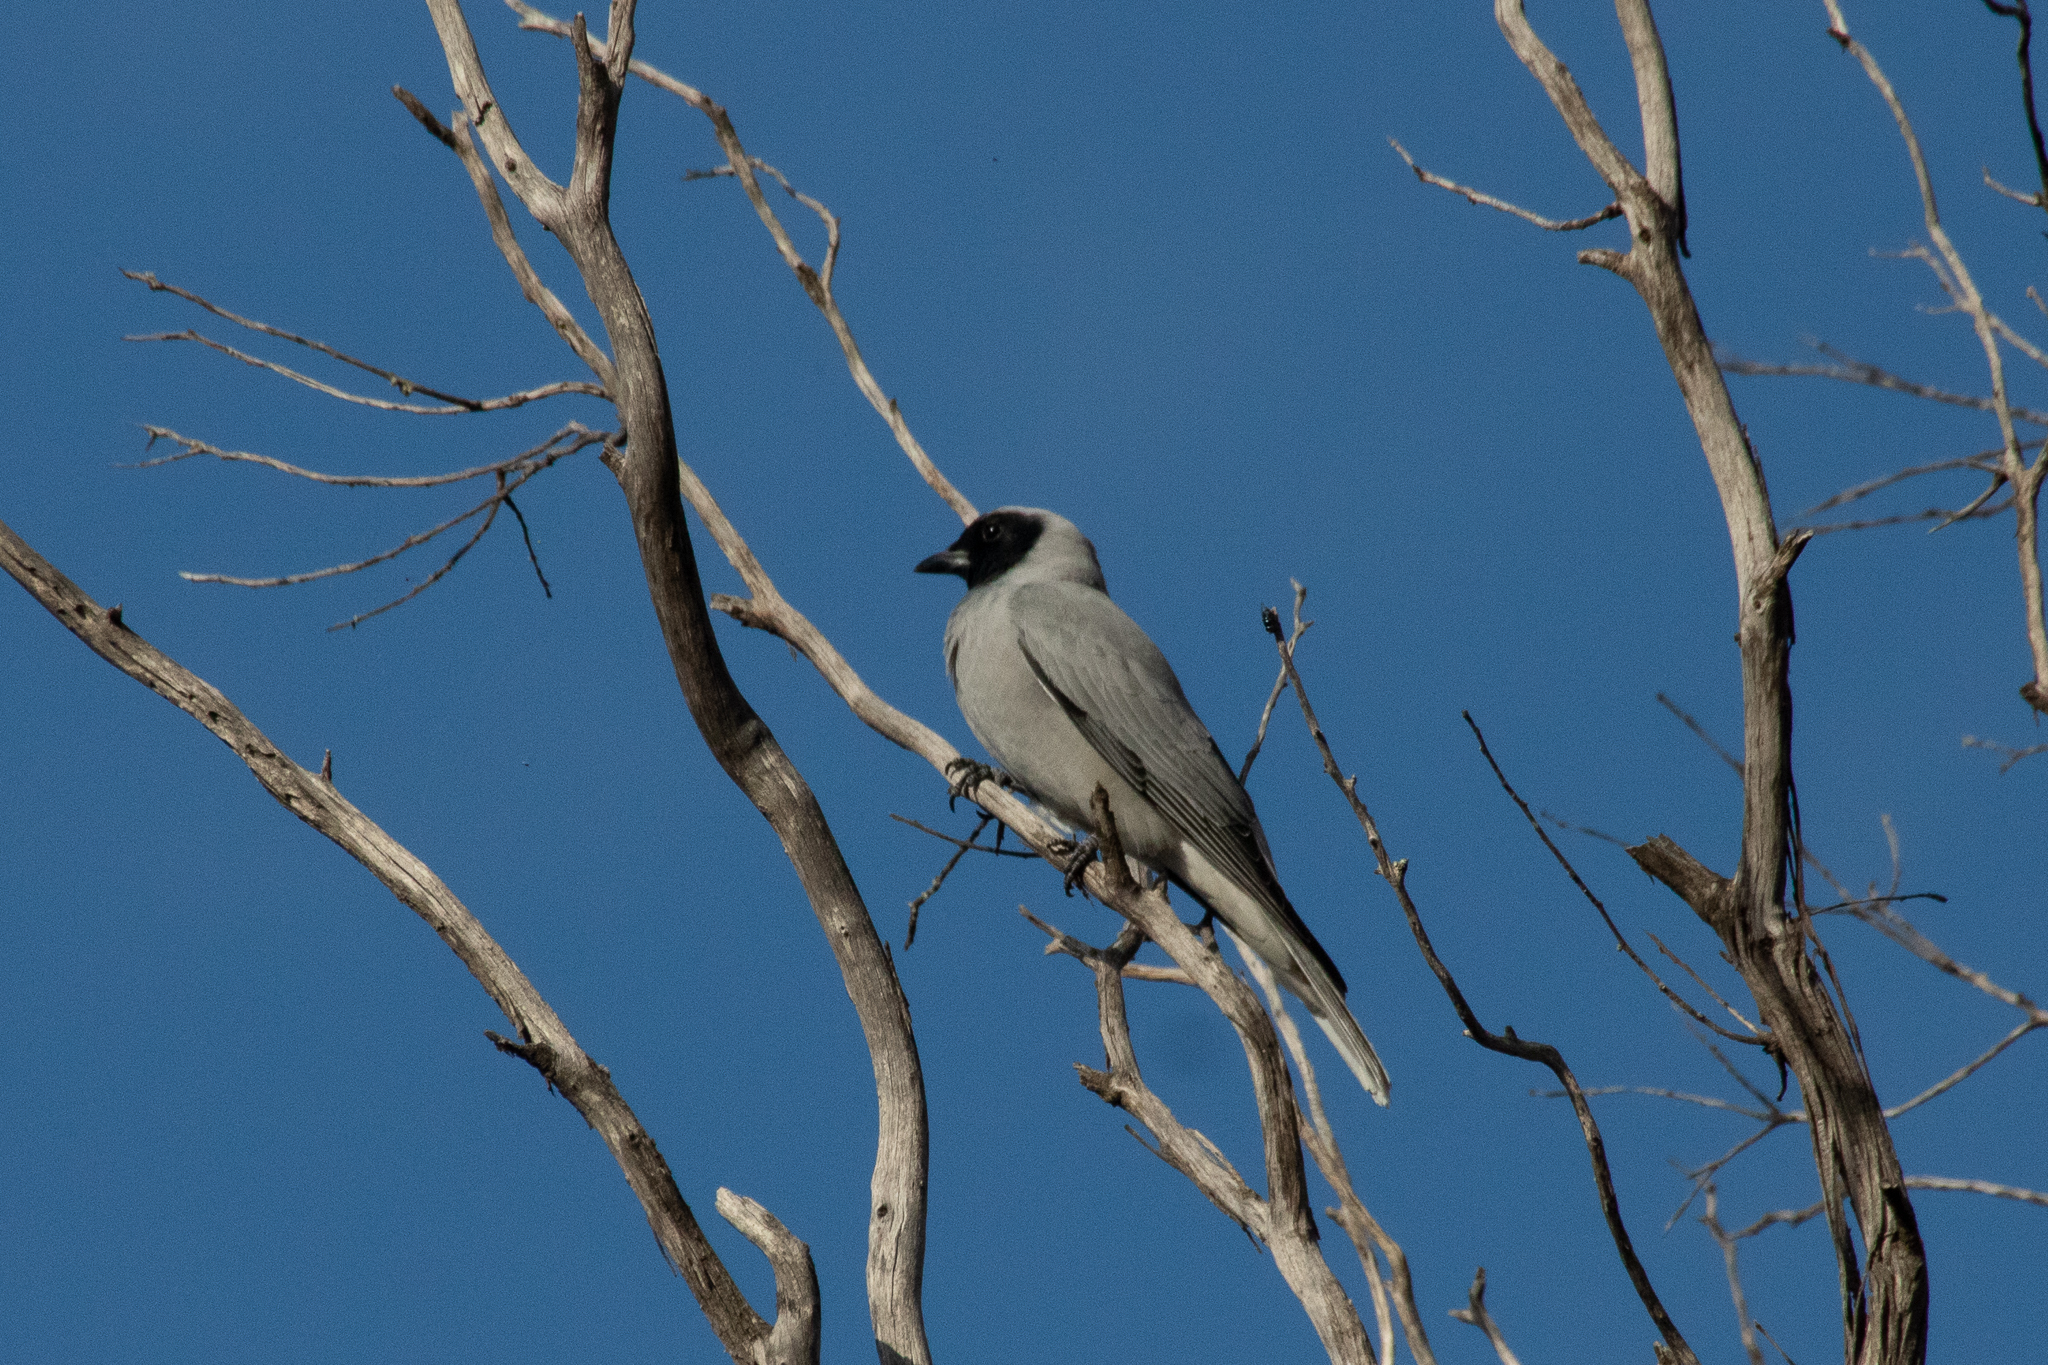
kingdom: Animalia
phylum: Chordata
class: Aves
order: Passeriformes
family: Campephagidae
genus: Coracina
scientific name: Coracina novaehollandiae
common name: Black-faced cuckooshrike
